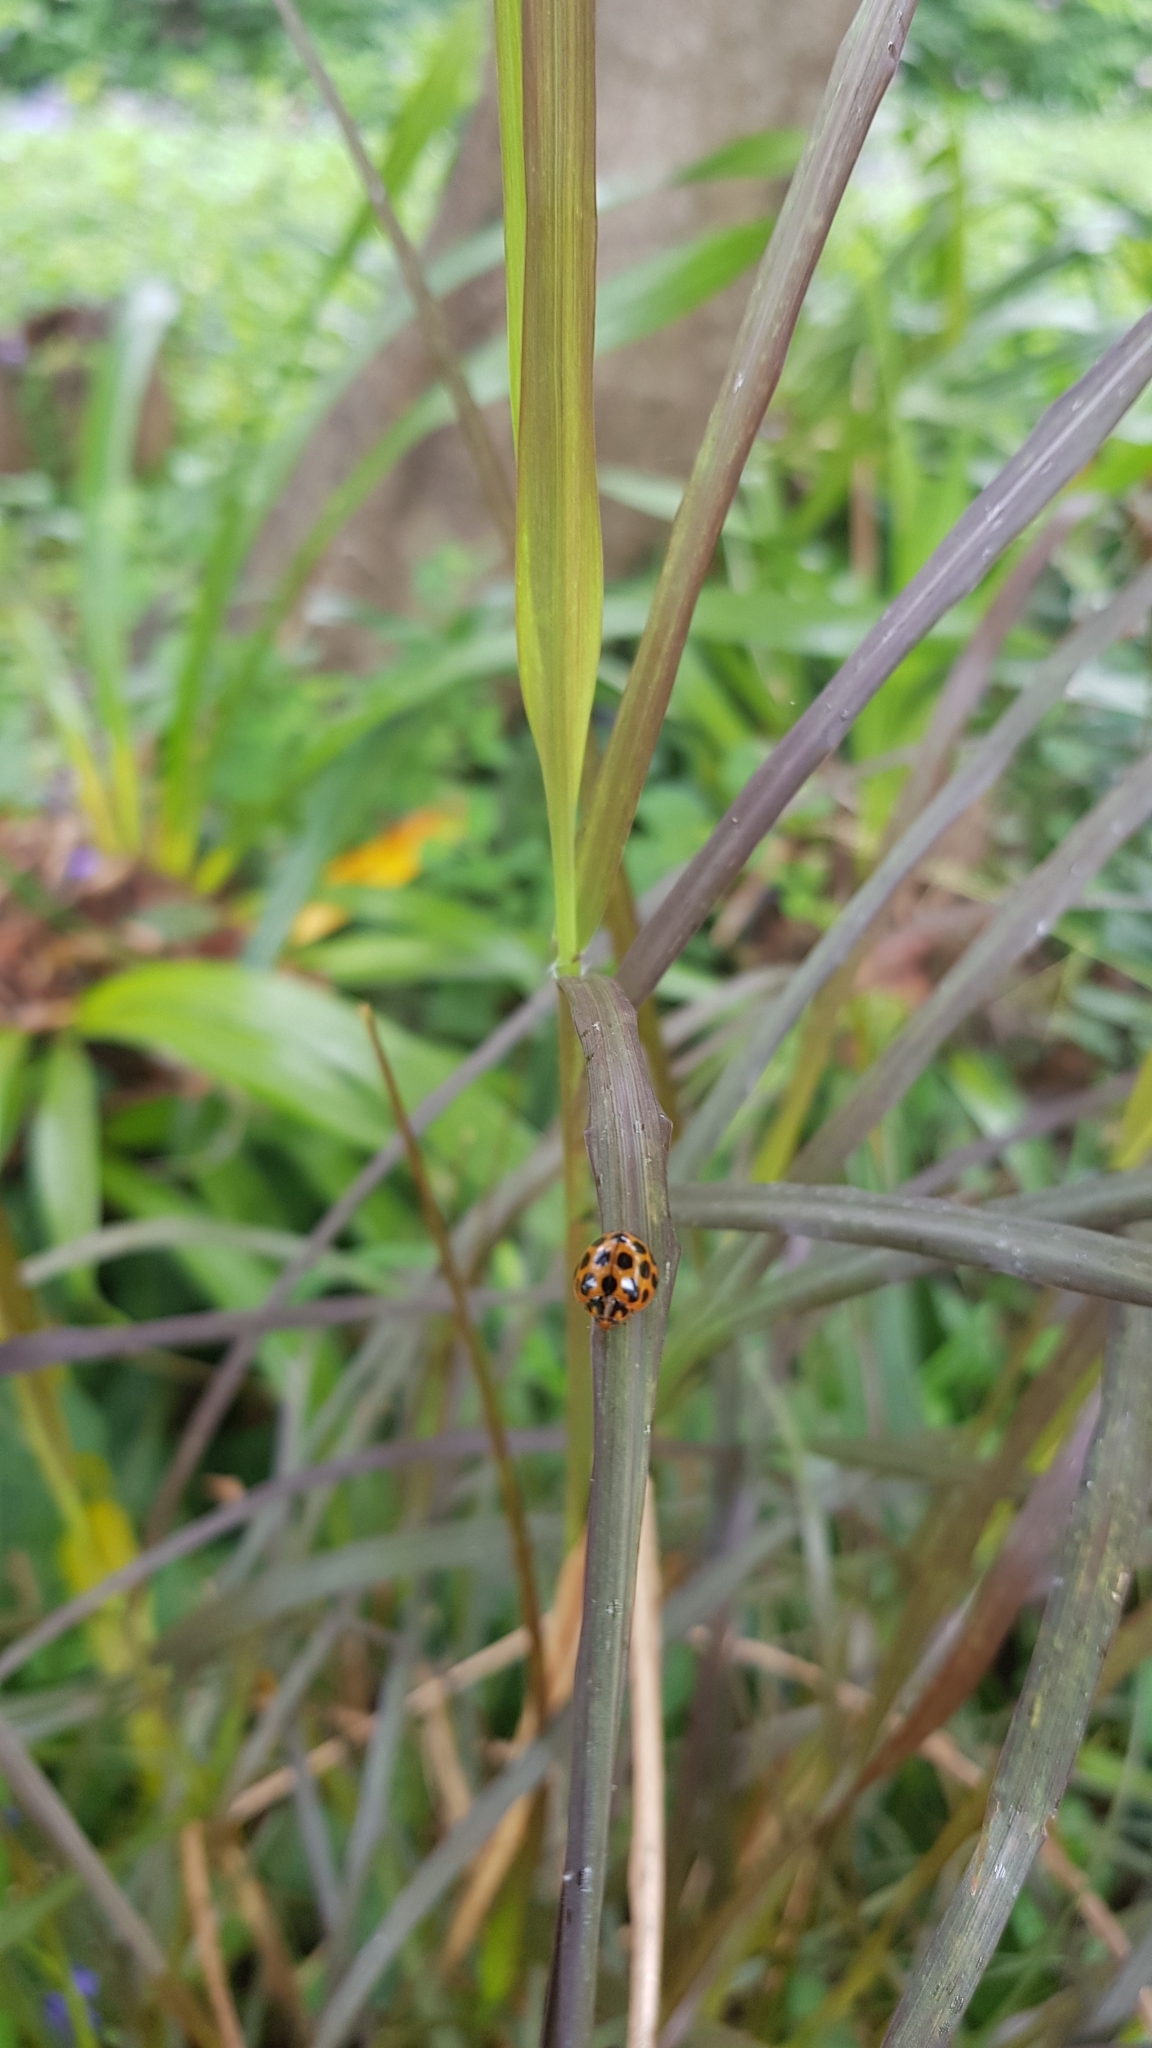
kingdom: Animalia
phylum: Arthropoda
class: Insecta
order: Coleoptera
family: Coccinellidae
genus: Harmonia
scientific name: Harmonia conformis
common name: Common spotted ladybird beetle
